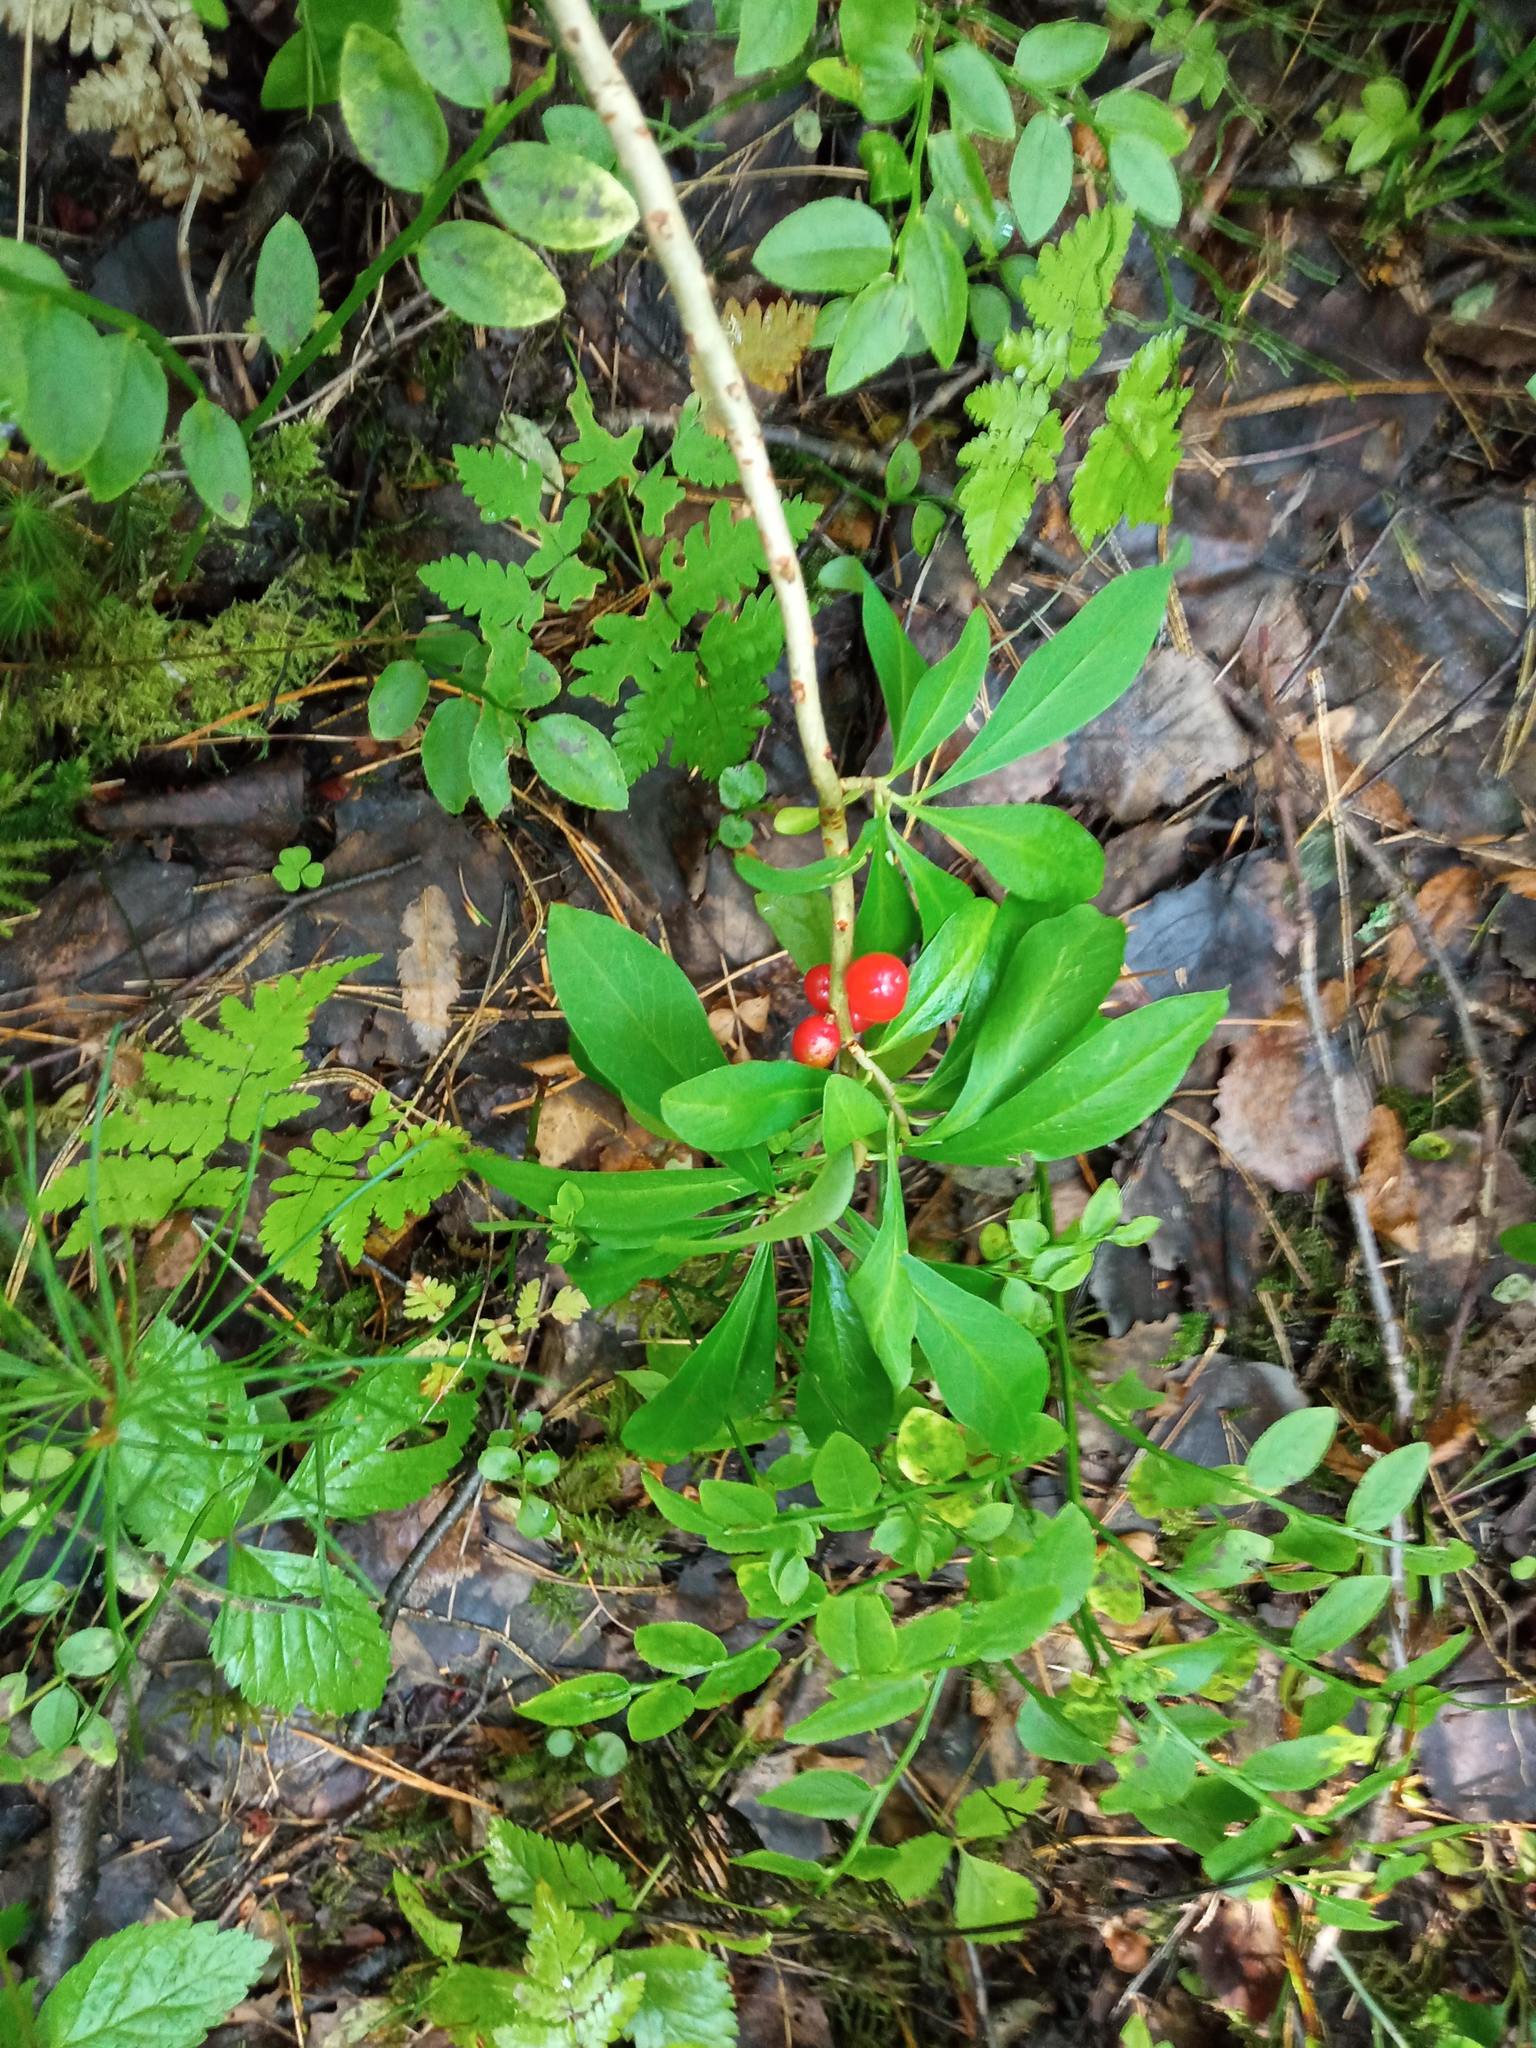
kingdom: Plantae
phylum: Tracheophyta
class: Magnoliopsida
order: Malvales
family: Thymelaeaceae
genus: Daphne
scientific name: Daphne mezereum
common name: Mezereon
